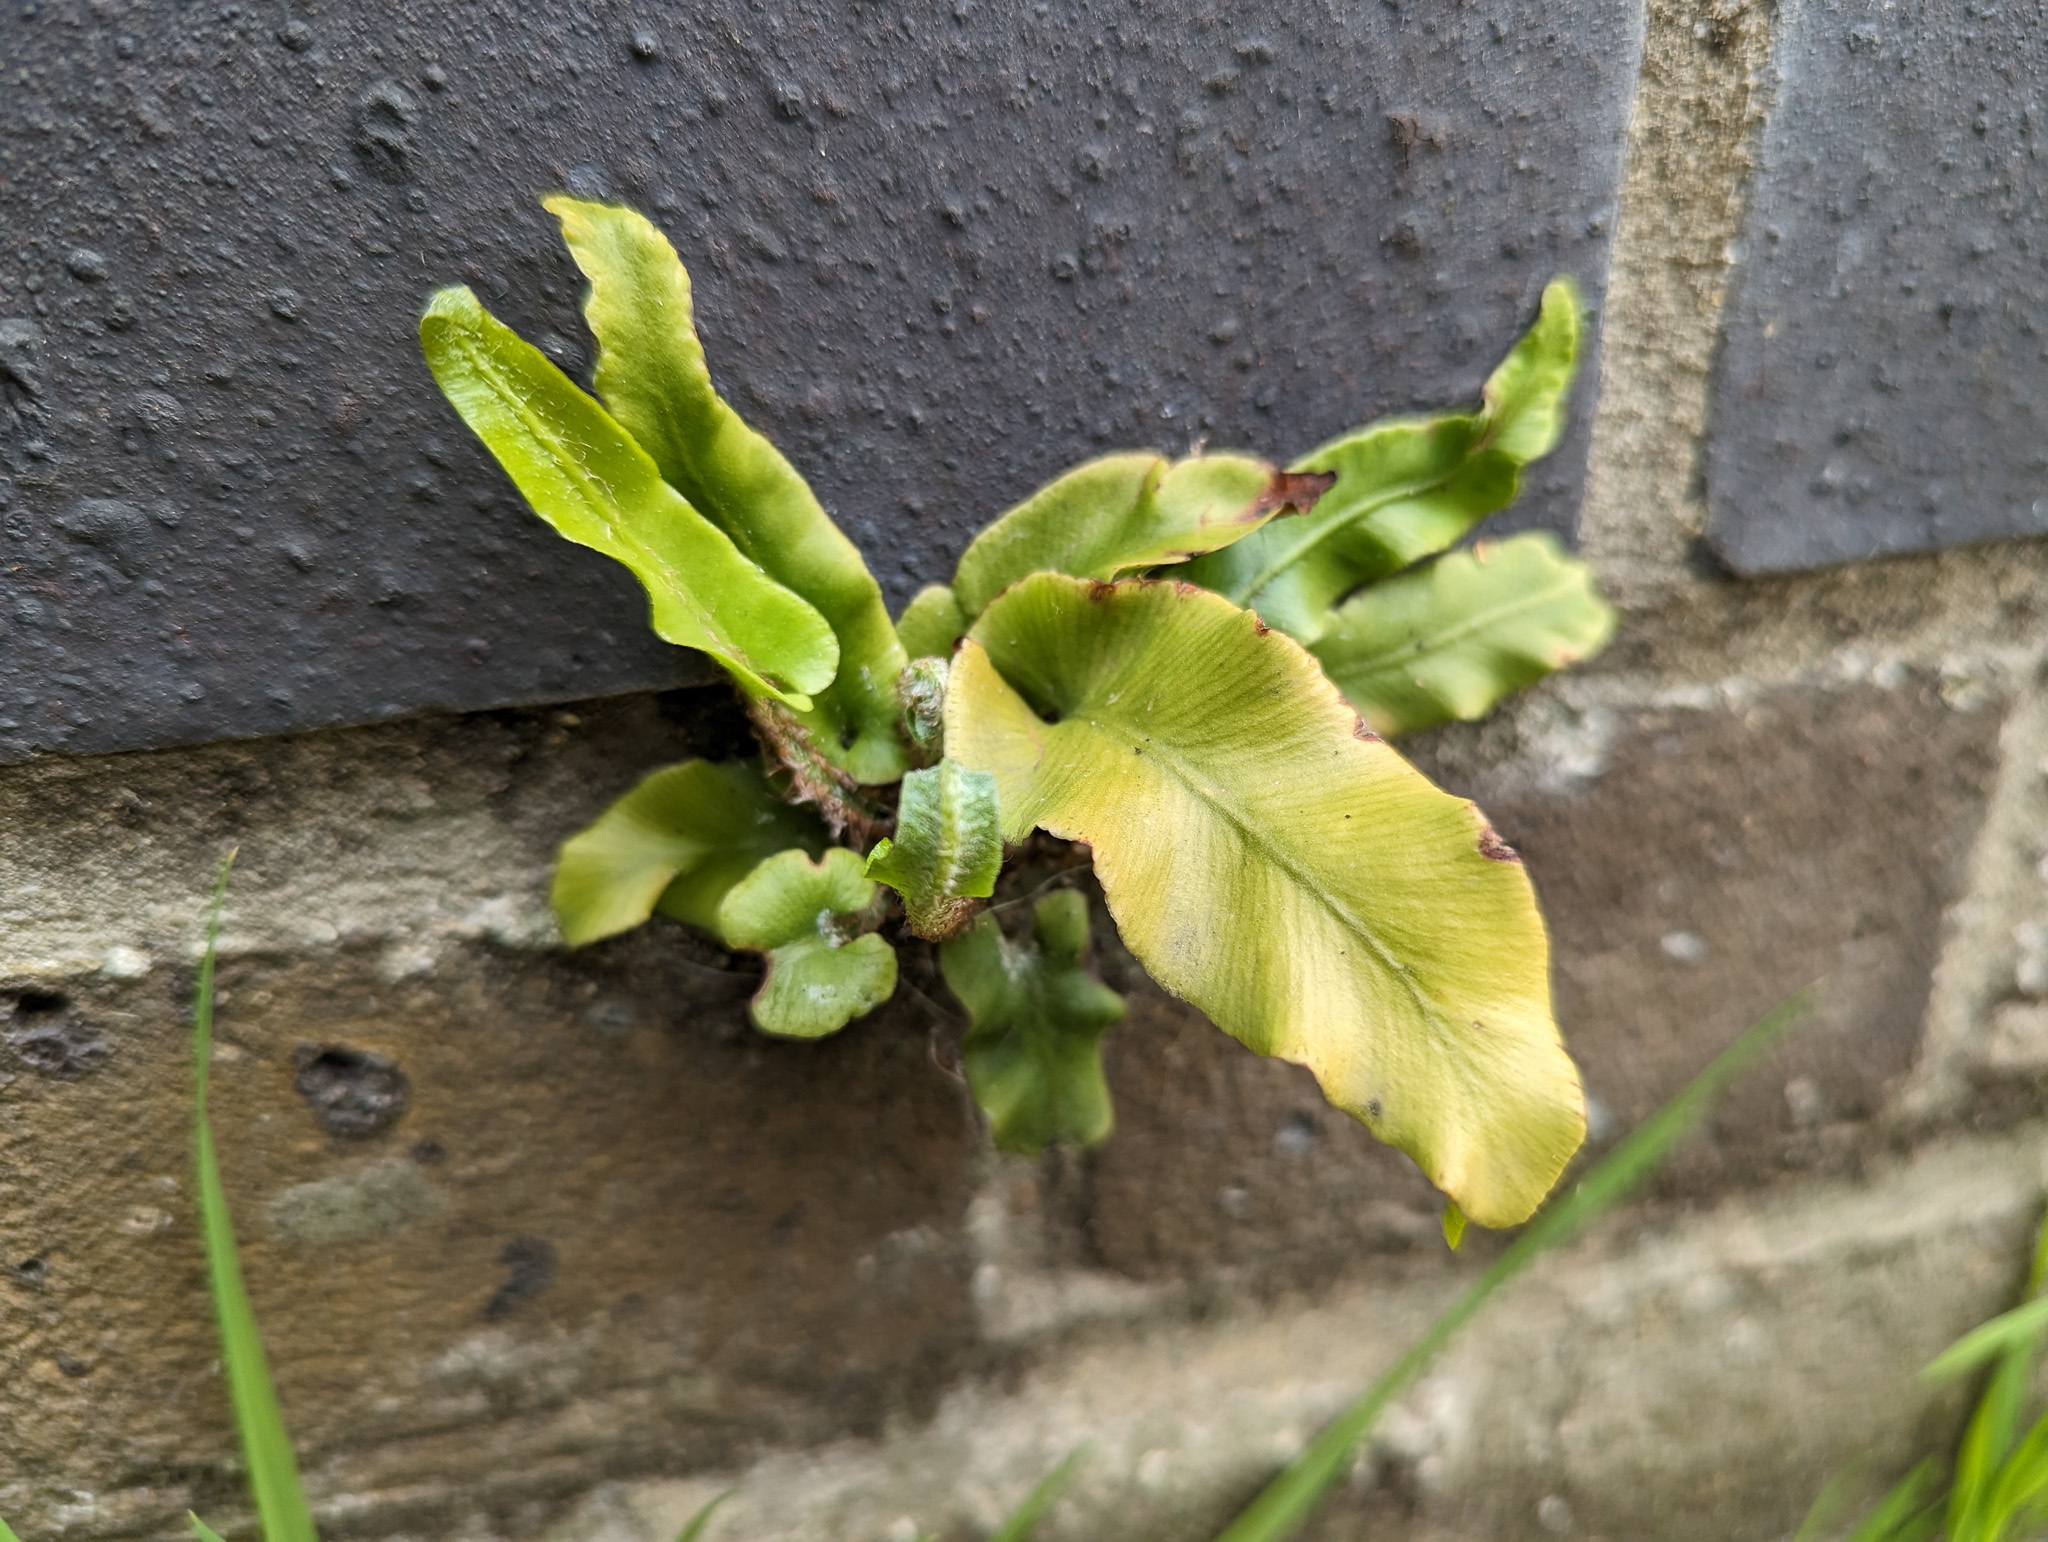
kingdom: Plantae
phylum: Tracheophyta
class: Polypodiopsida
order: Polypodiales
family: Aspleniaceae
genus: Asplenium
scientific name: Asplenium scolopendrium
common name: Hart's-tongue fern
